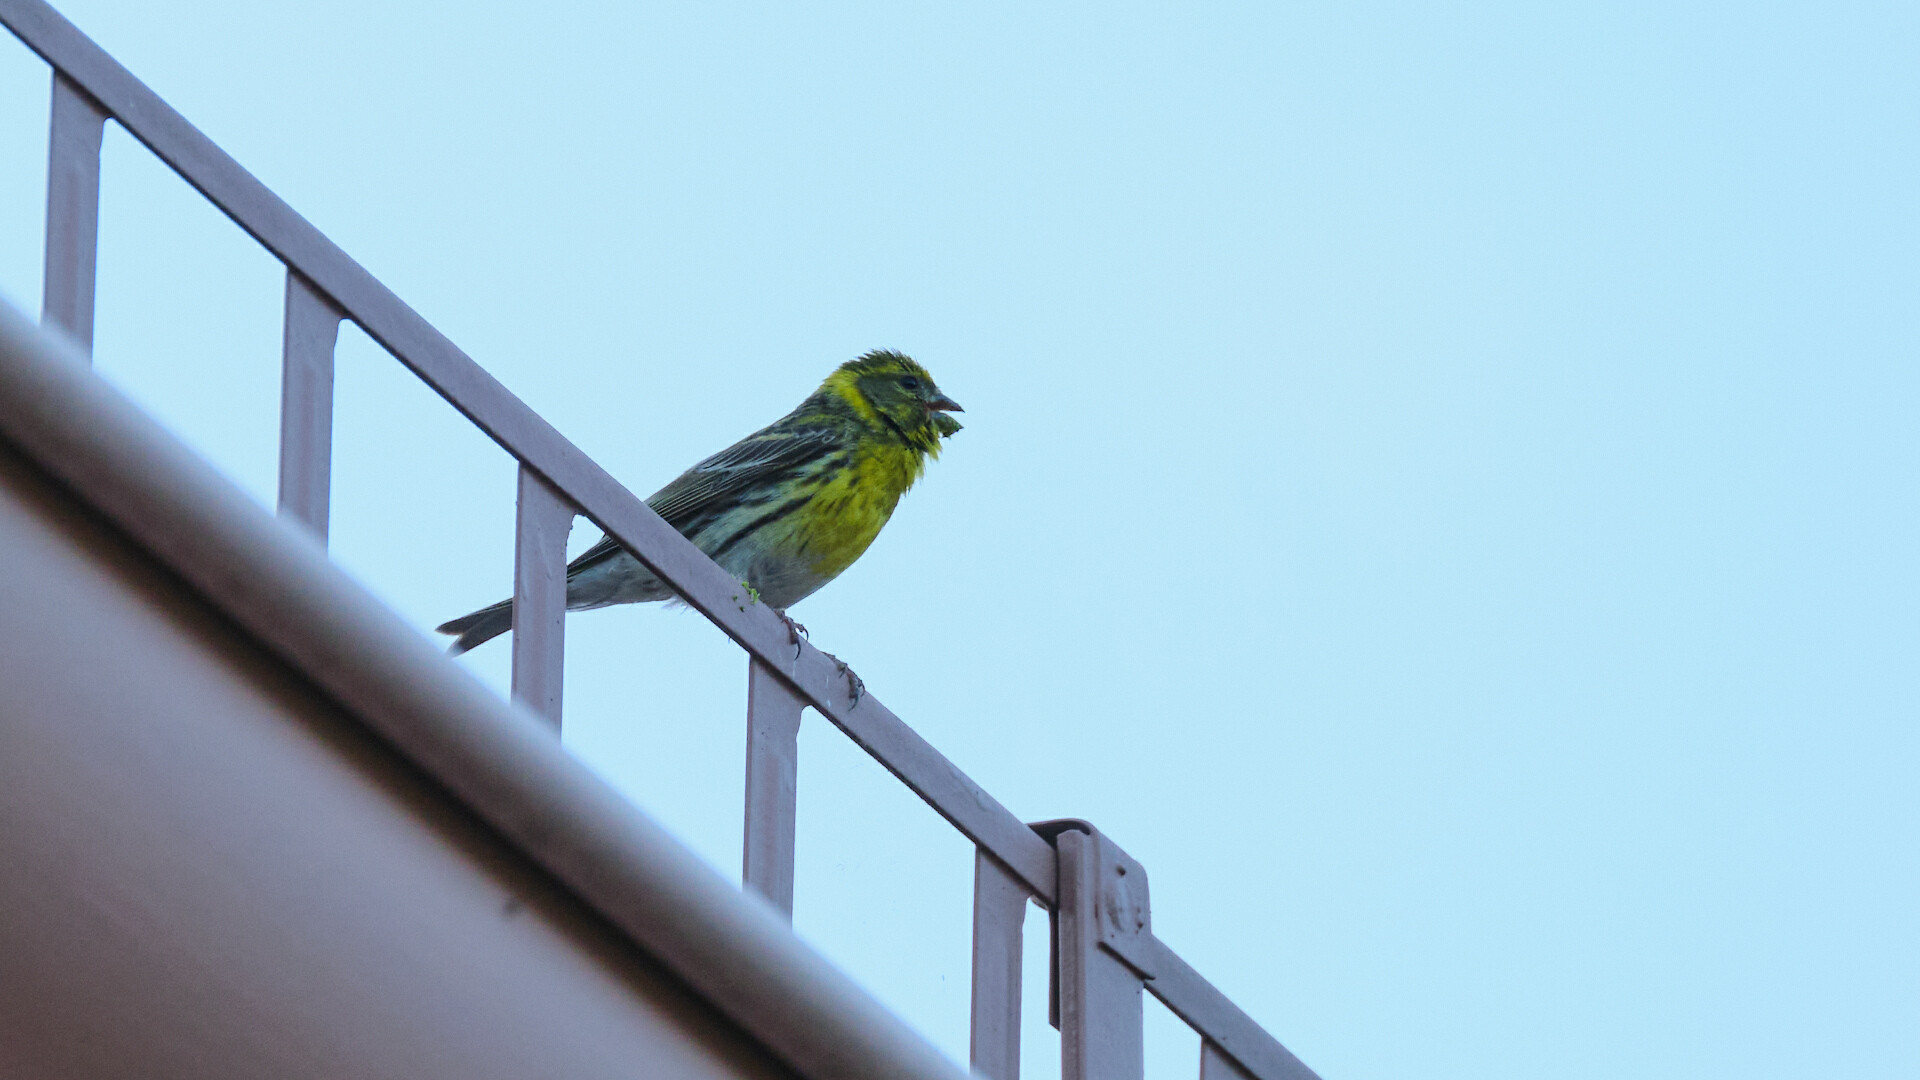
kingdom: Animalia
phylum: Chordata
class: Aves
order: Passeriformes
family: Fringillidae
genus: Serinus
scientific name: Serinus serinus
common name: European serin
